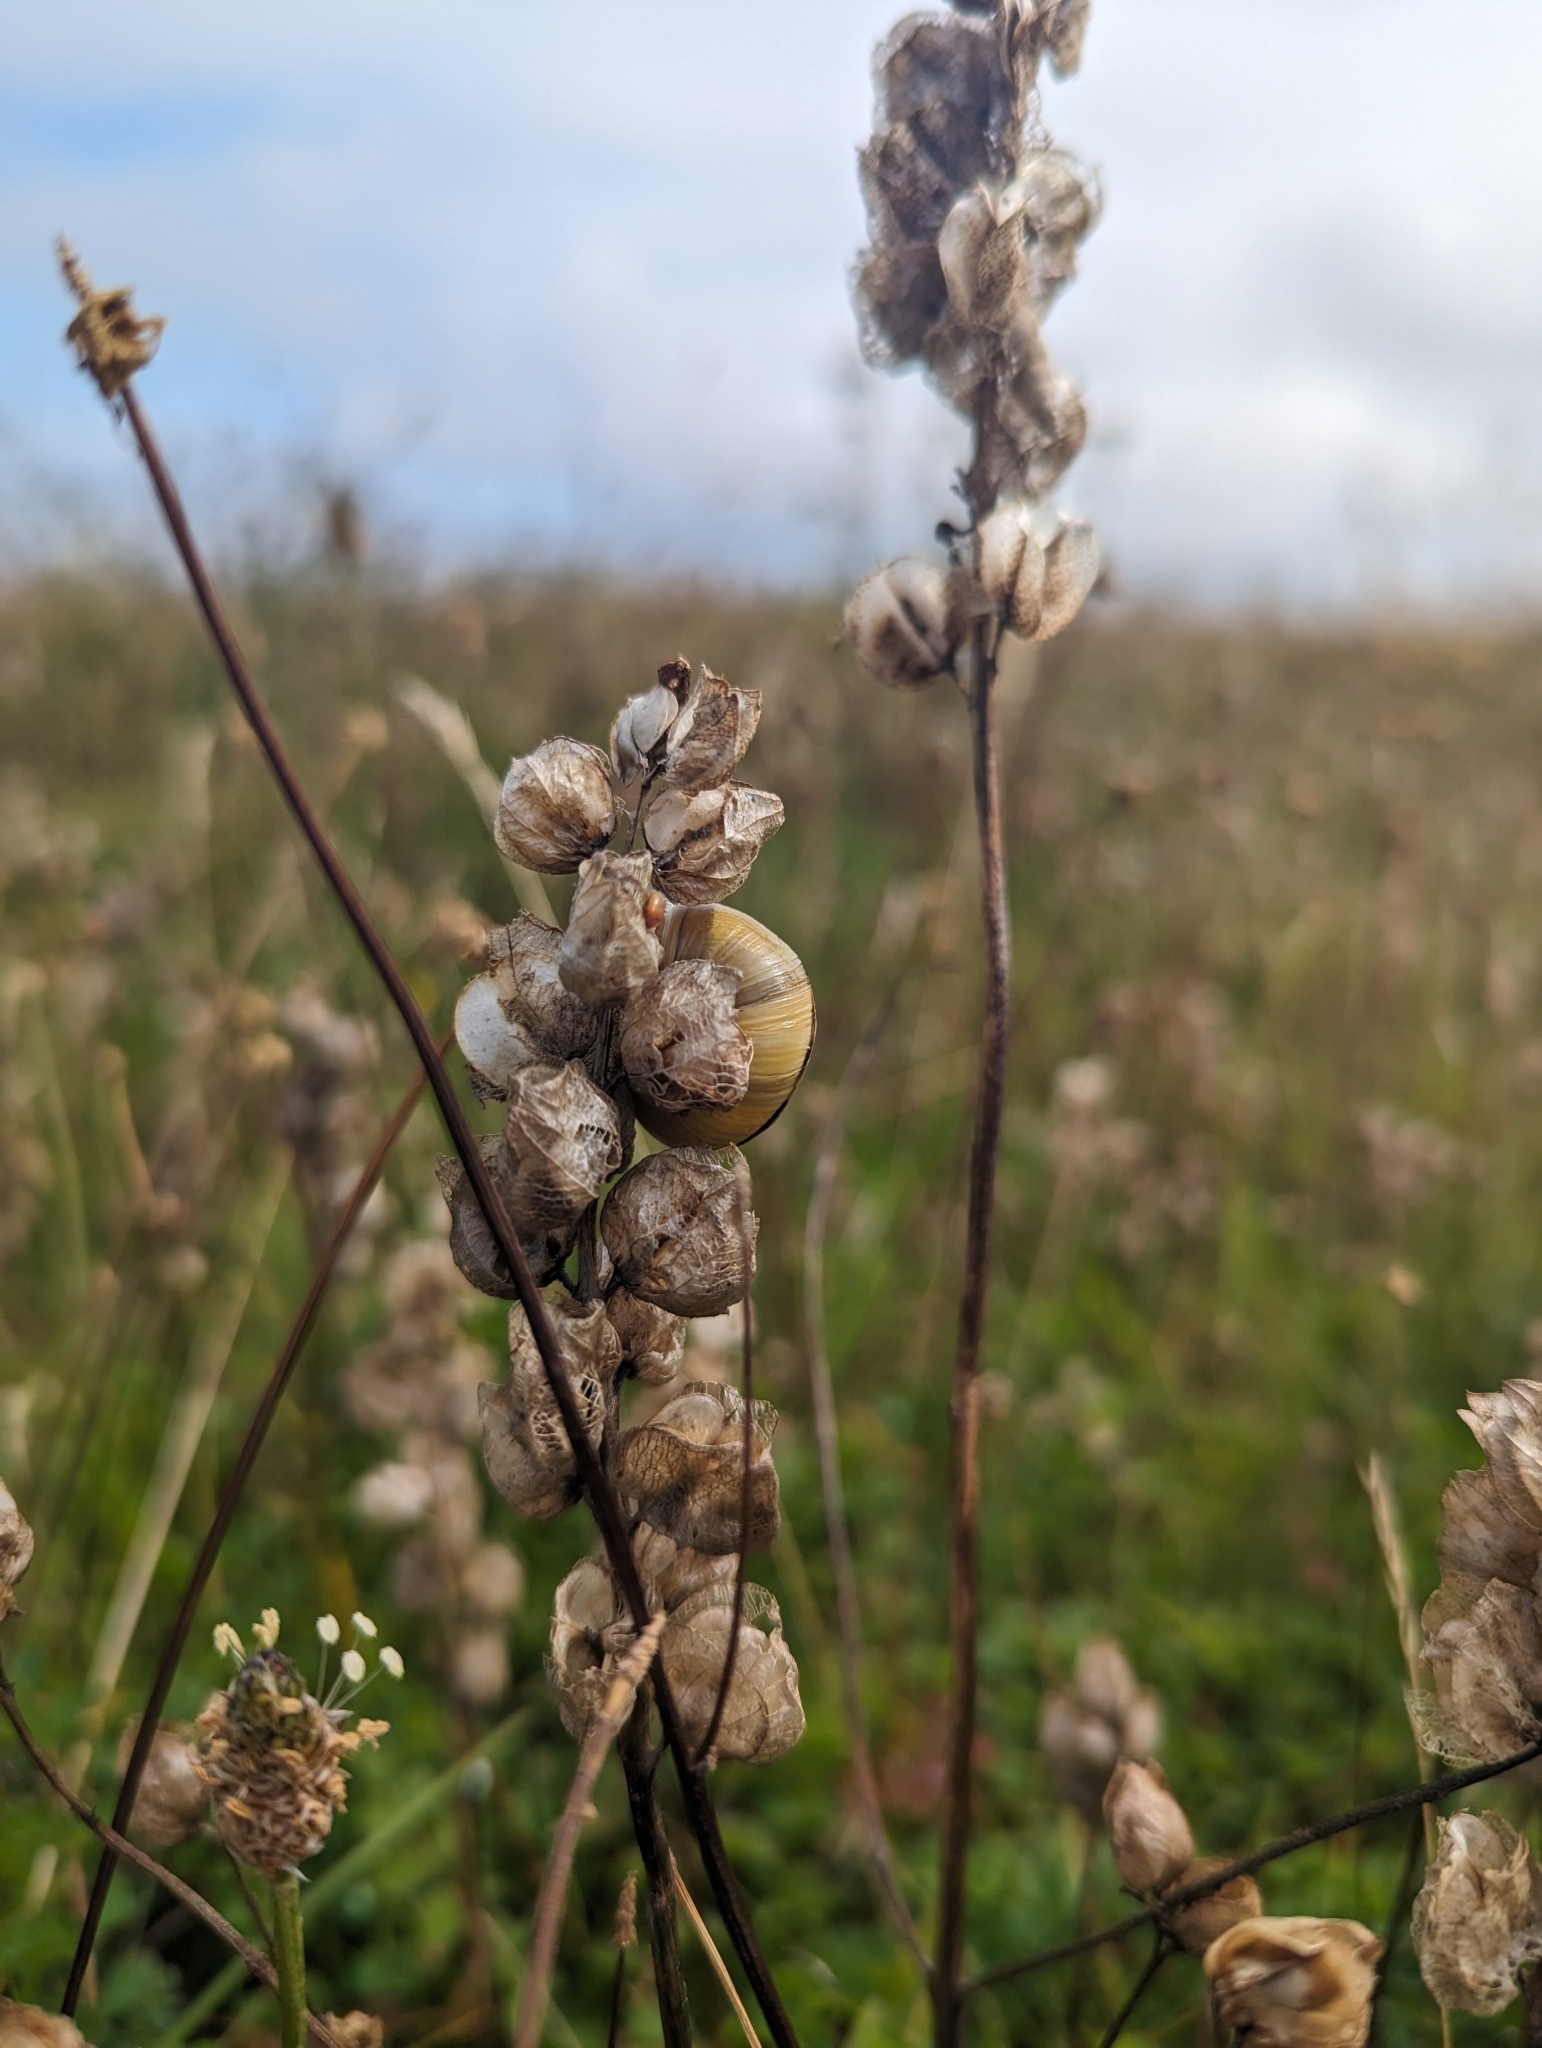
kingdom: Plantae
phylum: Tracheophyta
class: Magnoliopsida
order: Lamiales
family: Orobanchaceae
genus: Rhinanthus
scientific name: Rhinanthus minor
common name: Yellow-rattle
